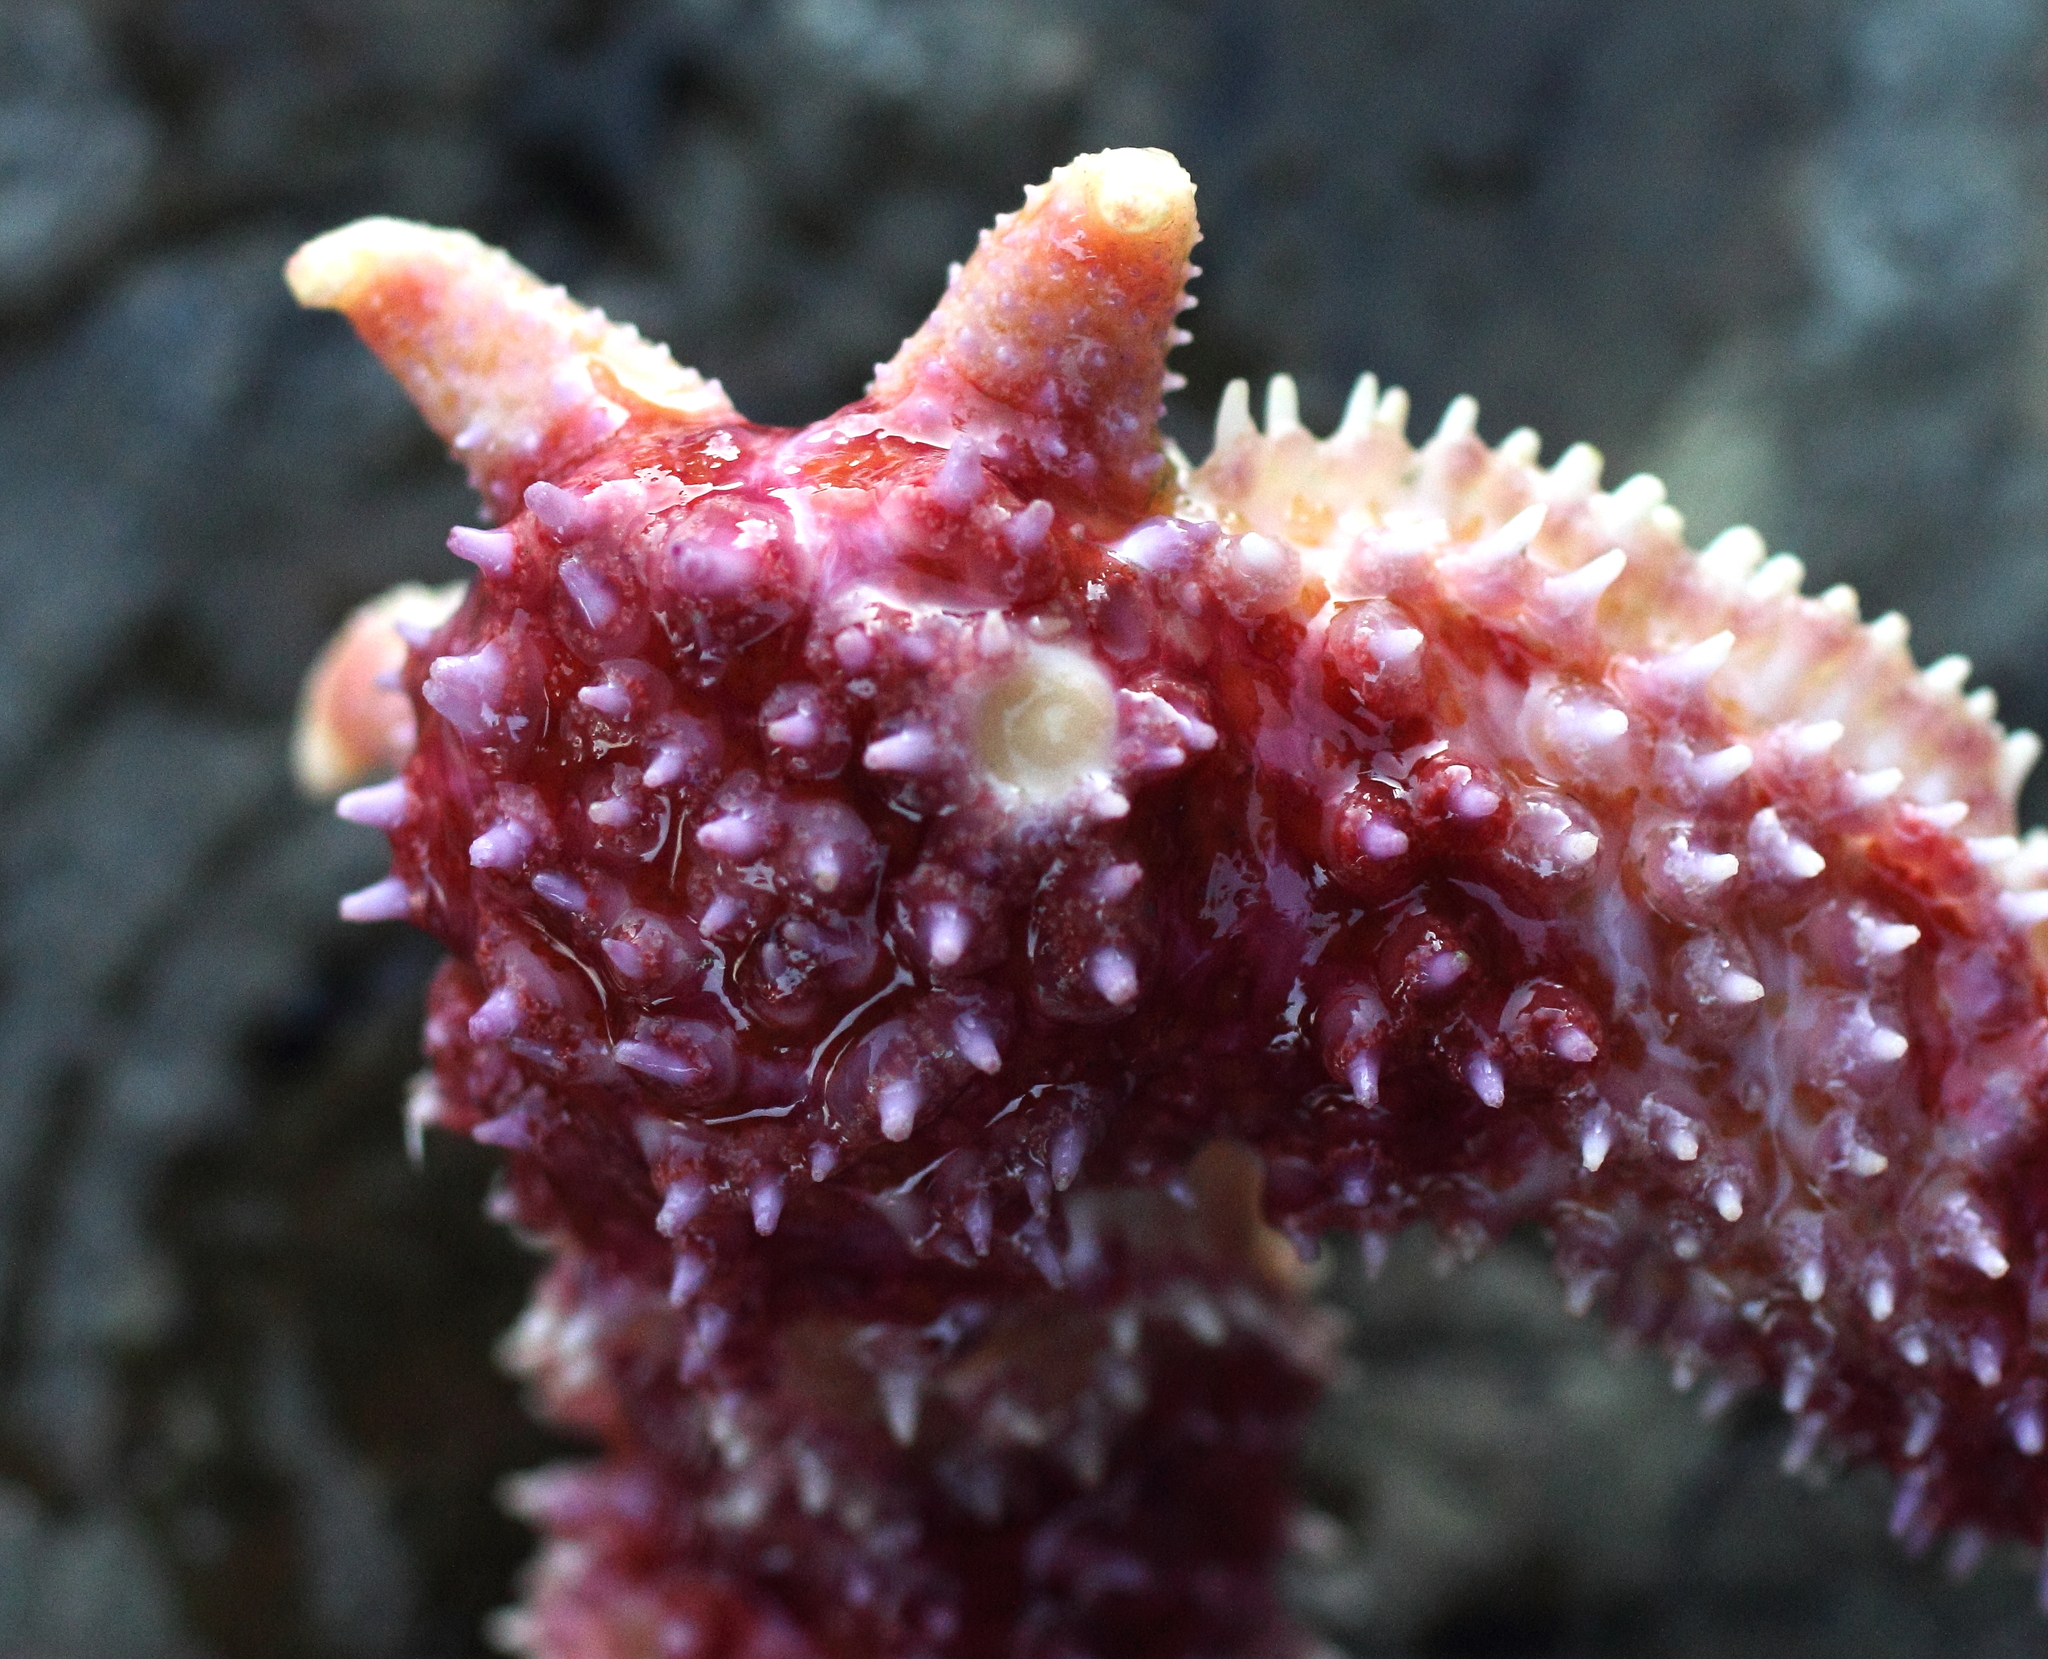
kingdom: Animalia
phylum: Echinodermata
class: Asteroidea
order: Forcipulatida
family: Asteriidae
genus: Orthasterias
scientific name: Orthasterias koehleri
